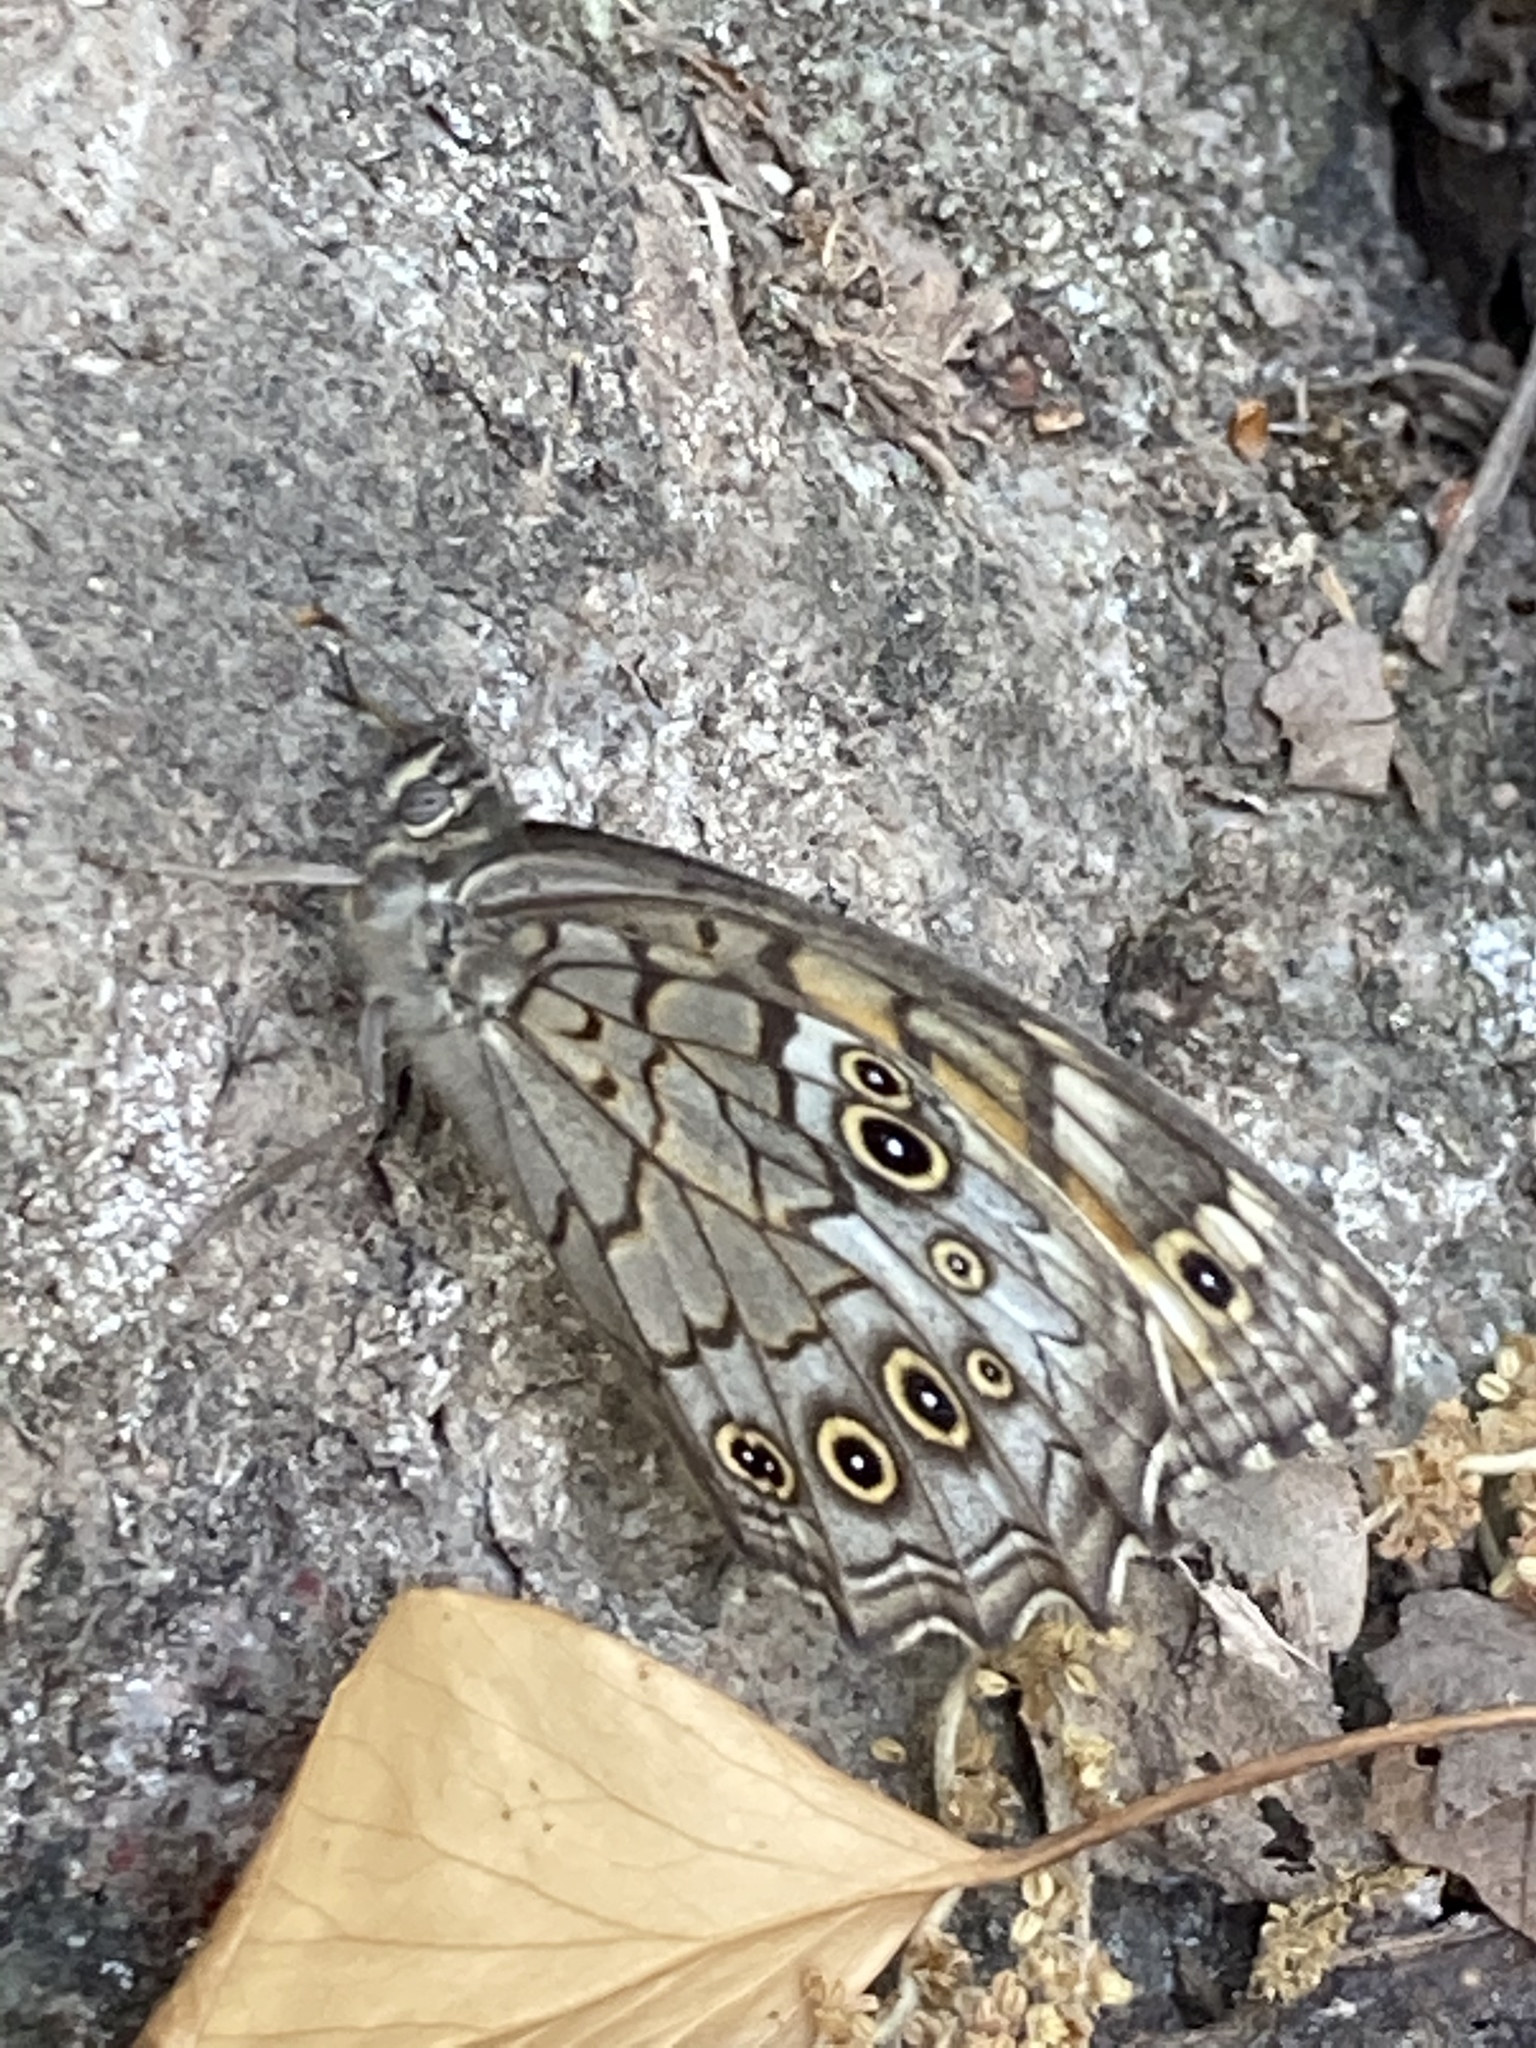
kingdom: Animalia
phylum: Arthropoda
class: Insecta
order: Lepidoptera
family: Nymphalidae
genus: Kirinia
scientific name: Kirinia roxelana
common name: Lattice brown
